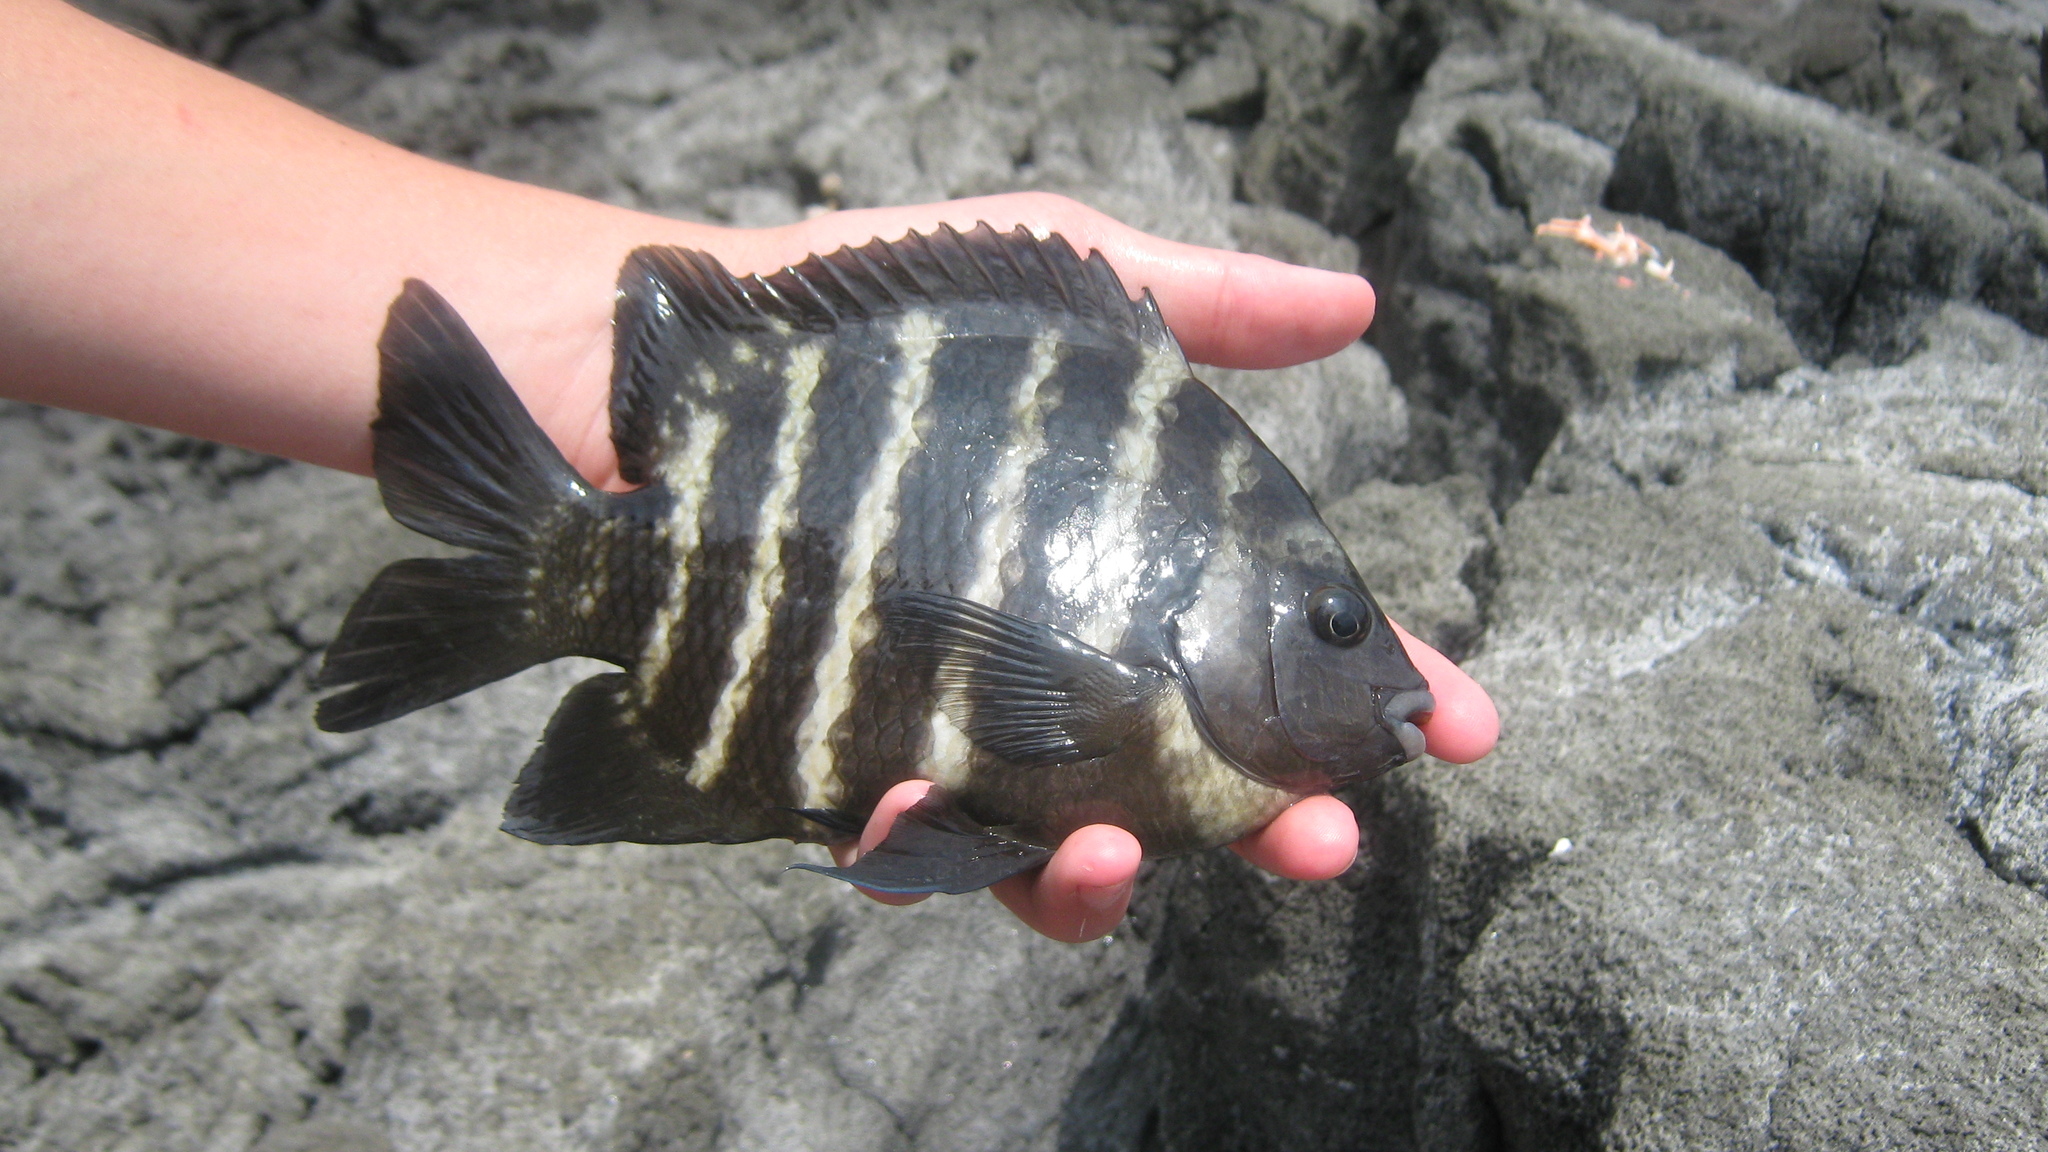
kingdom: Animalia
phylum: Chordata
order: Perciformes
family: Pomacentridae
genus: Abudefduf
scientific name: Abudefduf sordidus
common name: Blackspot sergeant
